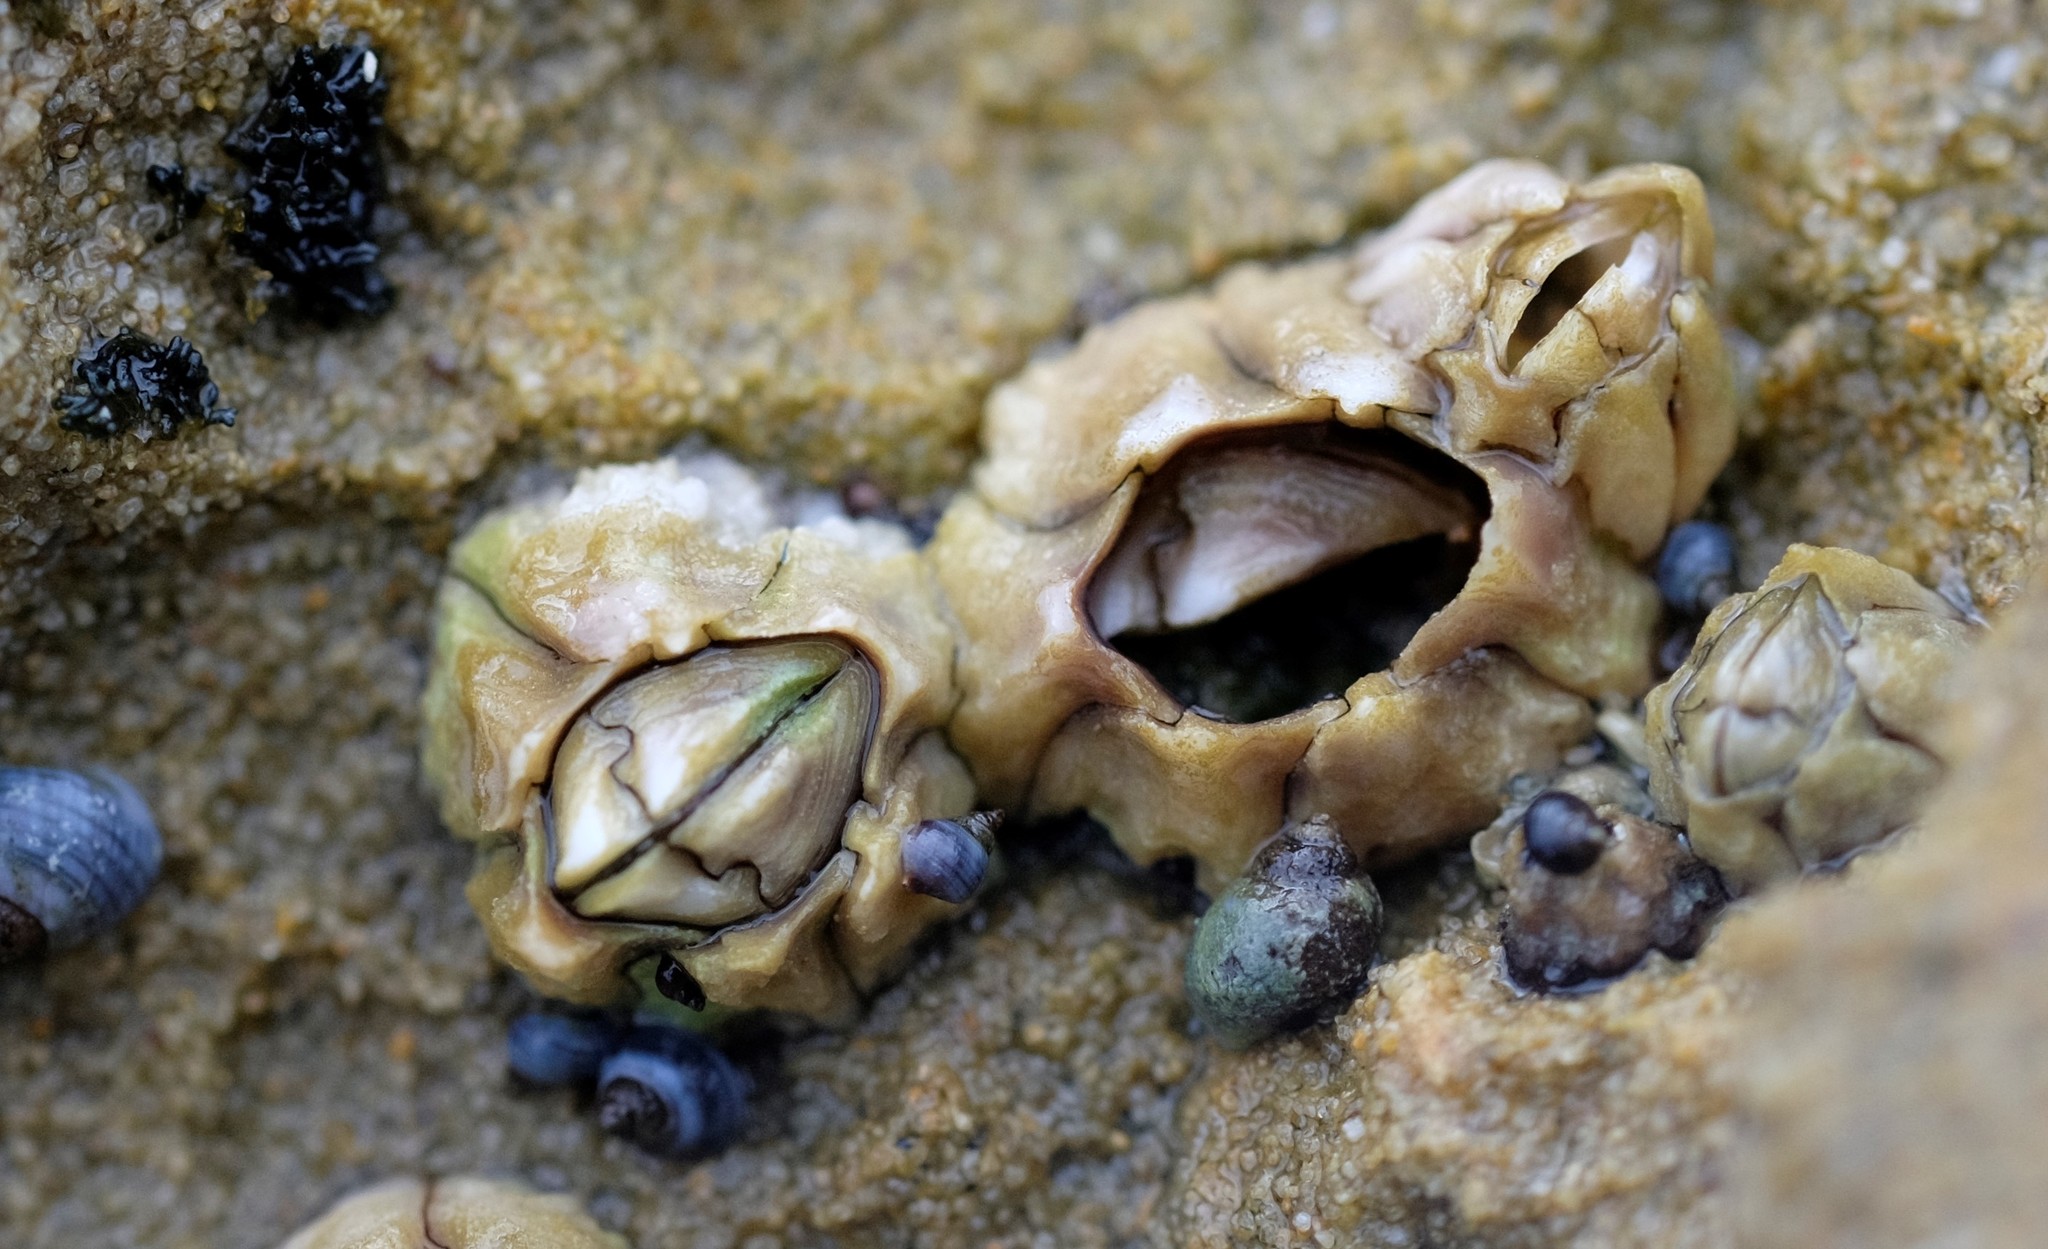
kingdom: Animalia
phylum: Arthropoda
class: Maxillopoda
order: Sessilia
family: Chthamalidae
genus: Chthamalus
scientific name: Chthamalus antennatus
